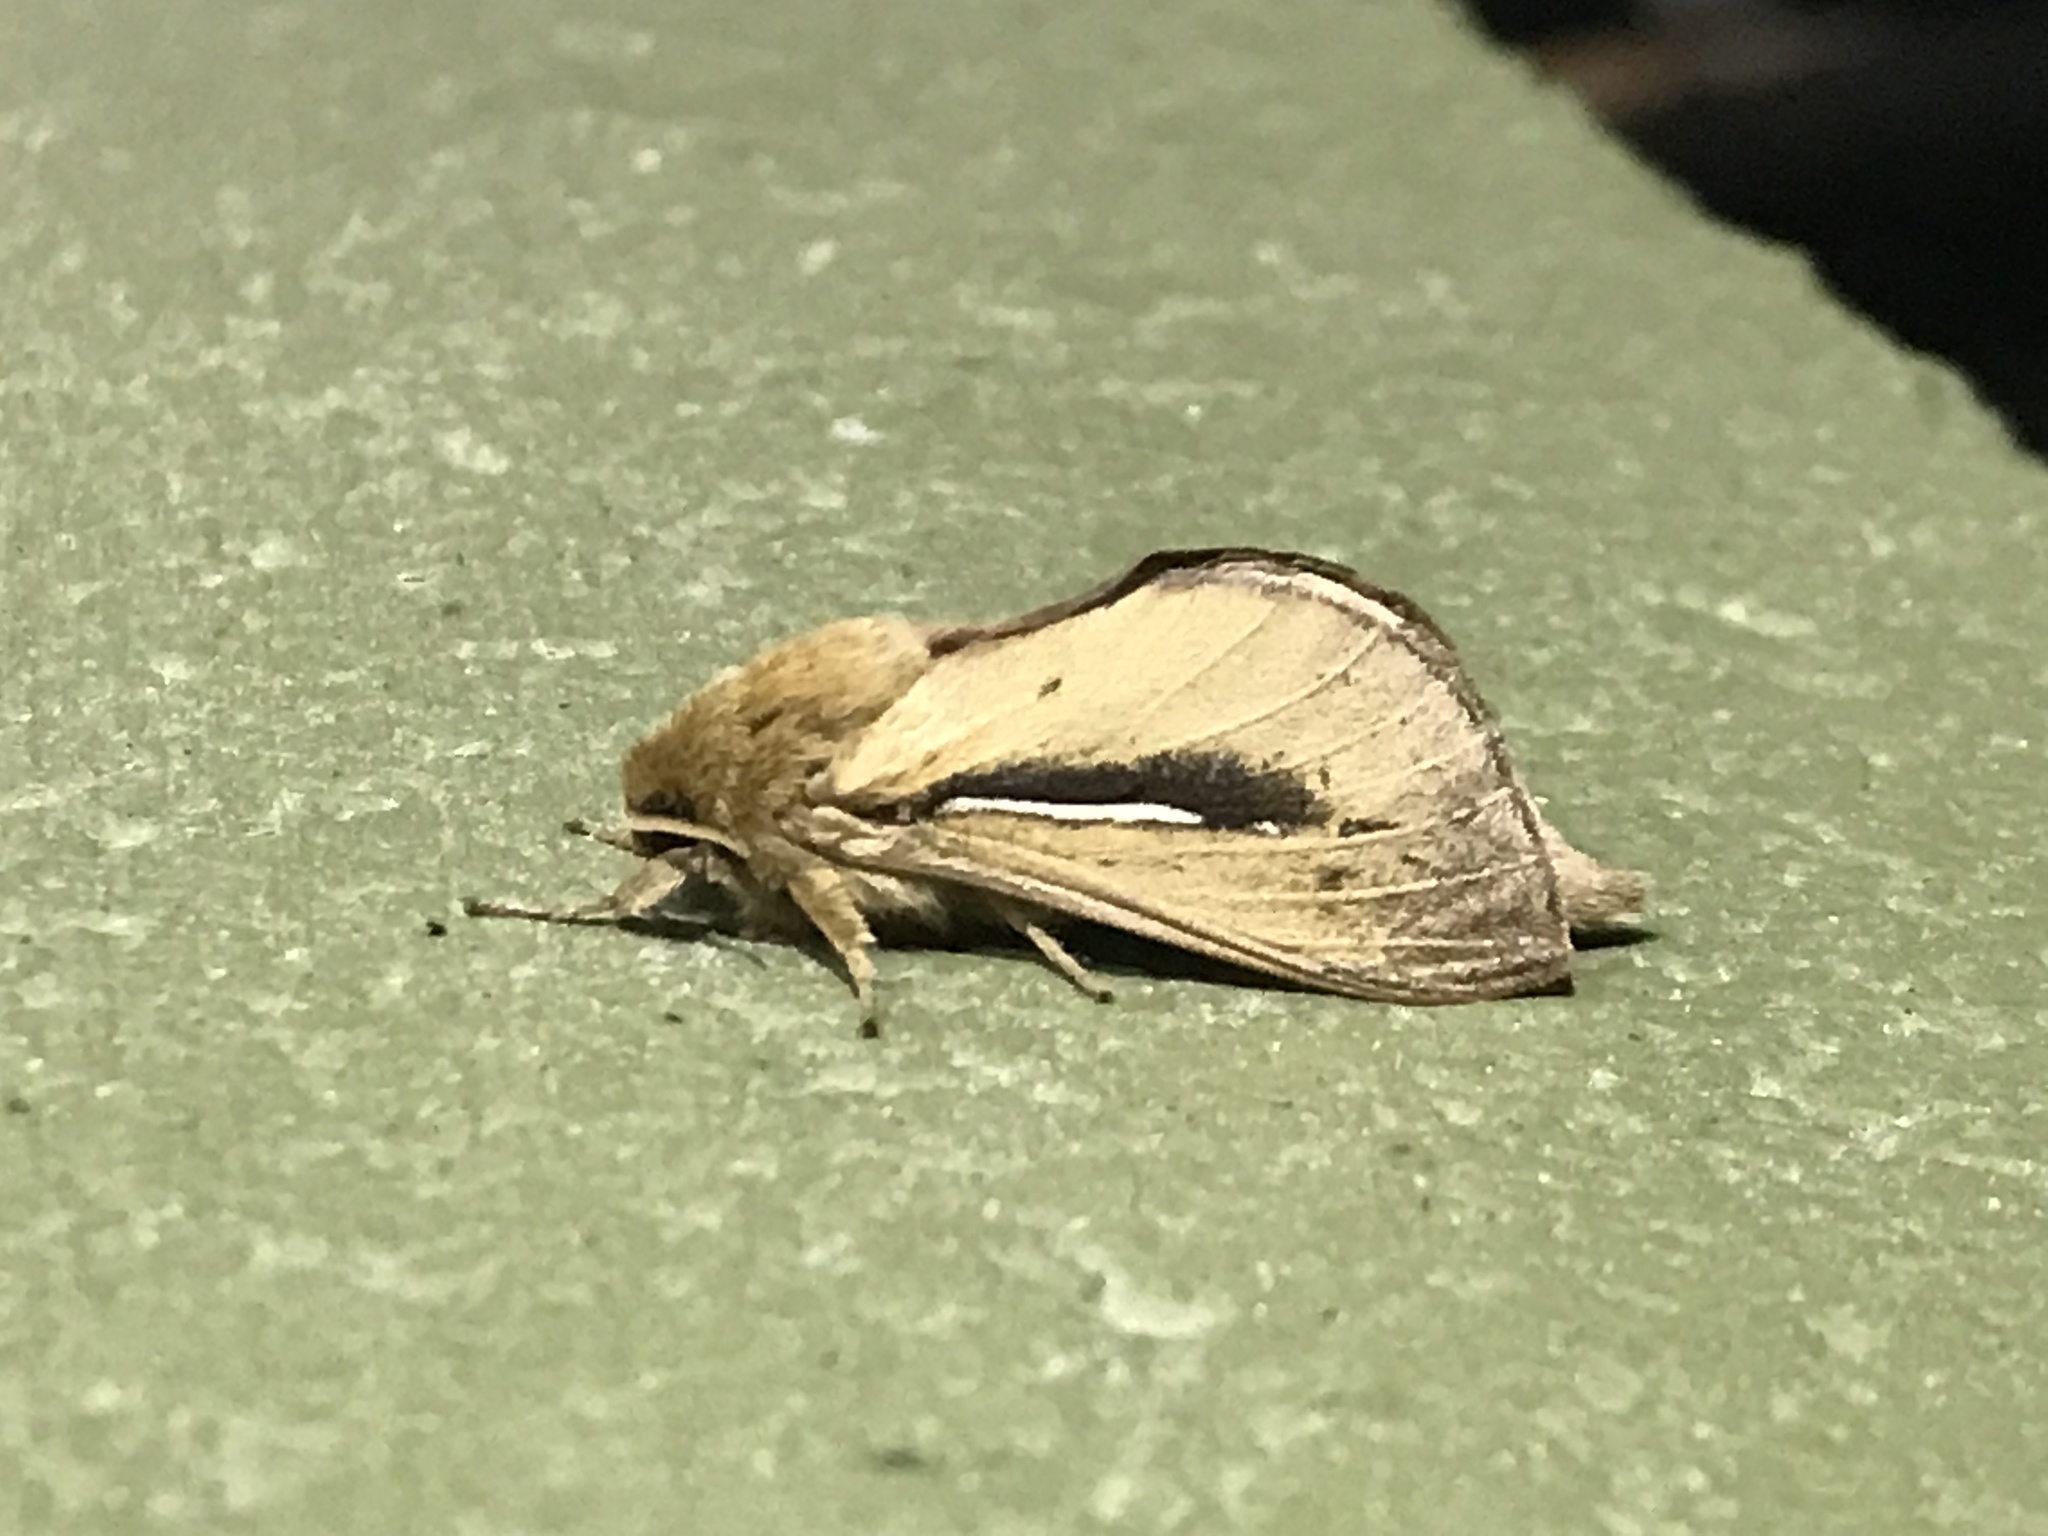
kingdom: Animalia
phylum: Arthropoda
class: Insecta
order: Lepidoptera
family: Hepialidae
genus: Wiseana
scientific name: Wiseana umbraculatus
